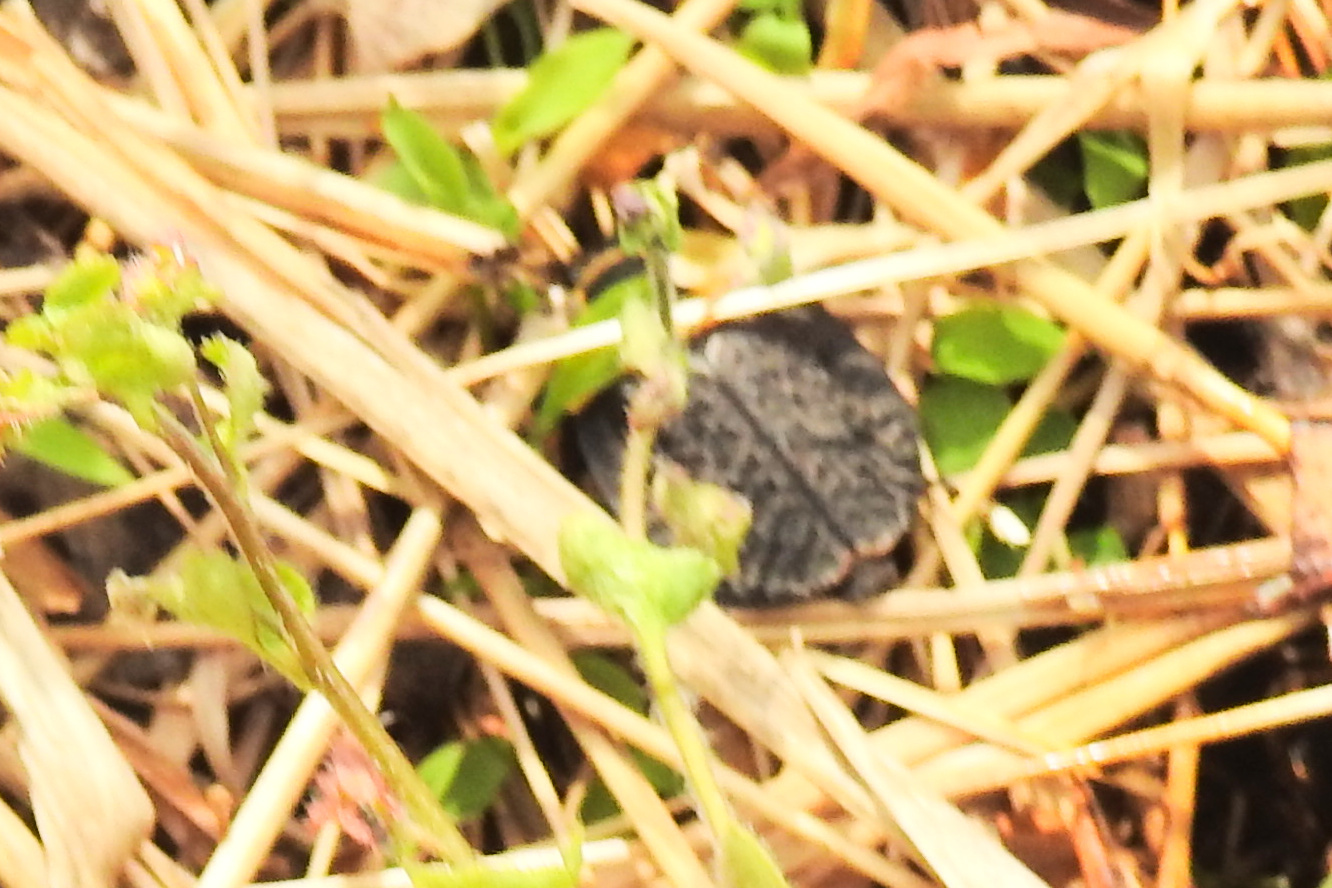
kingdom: Animalia
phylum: Arthropoda
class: Insecta
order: Coleoptera
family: Staphylinidae
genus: Necrophila
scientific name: Necrophila americana
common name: American carrion beetle
